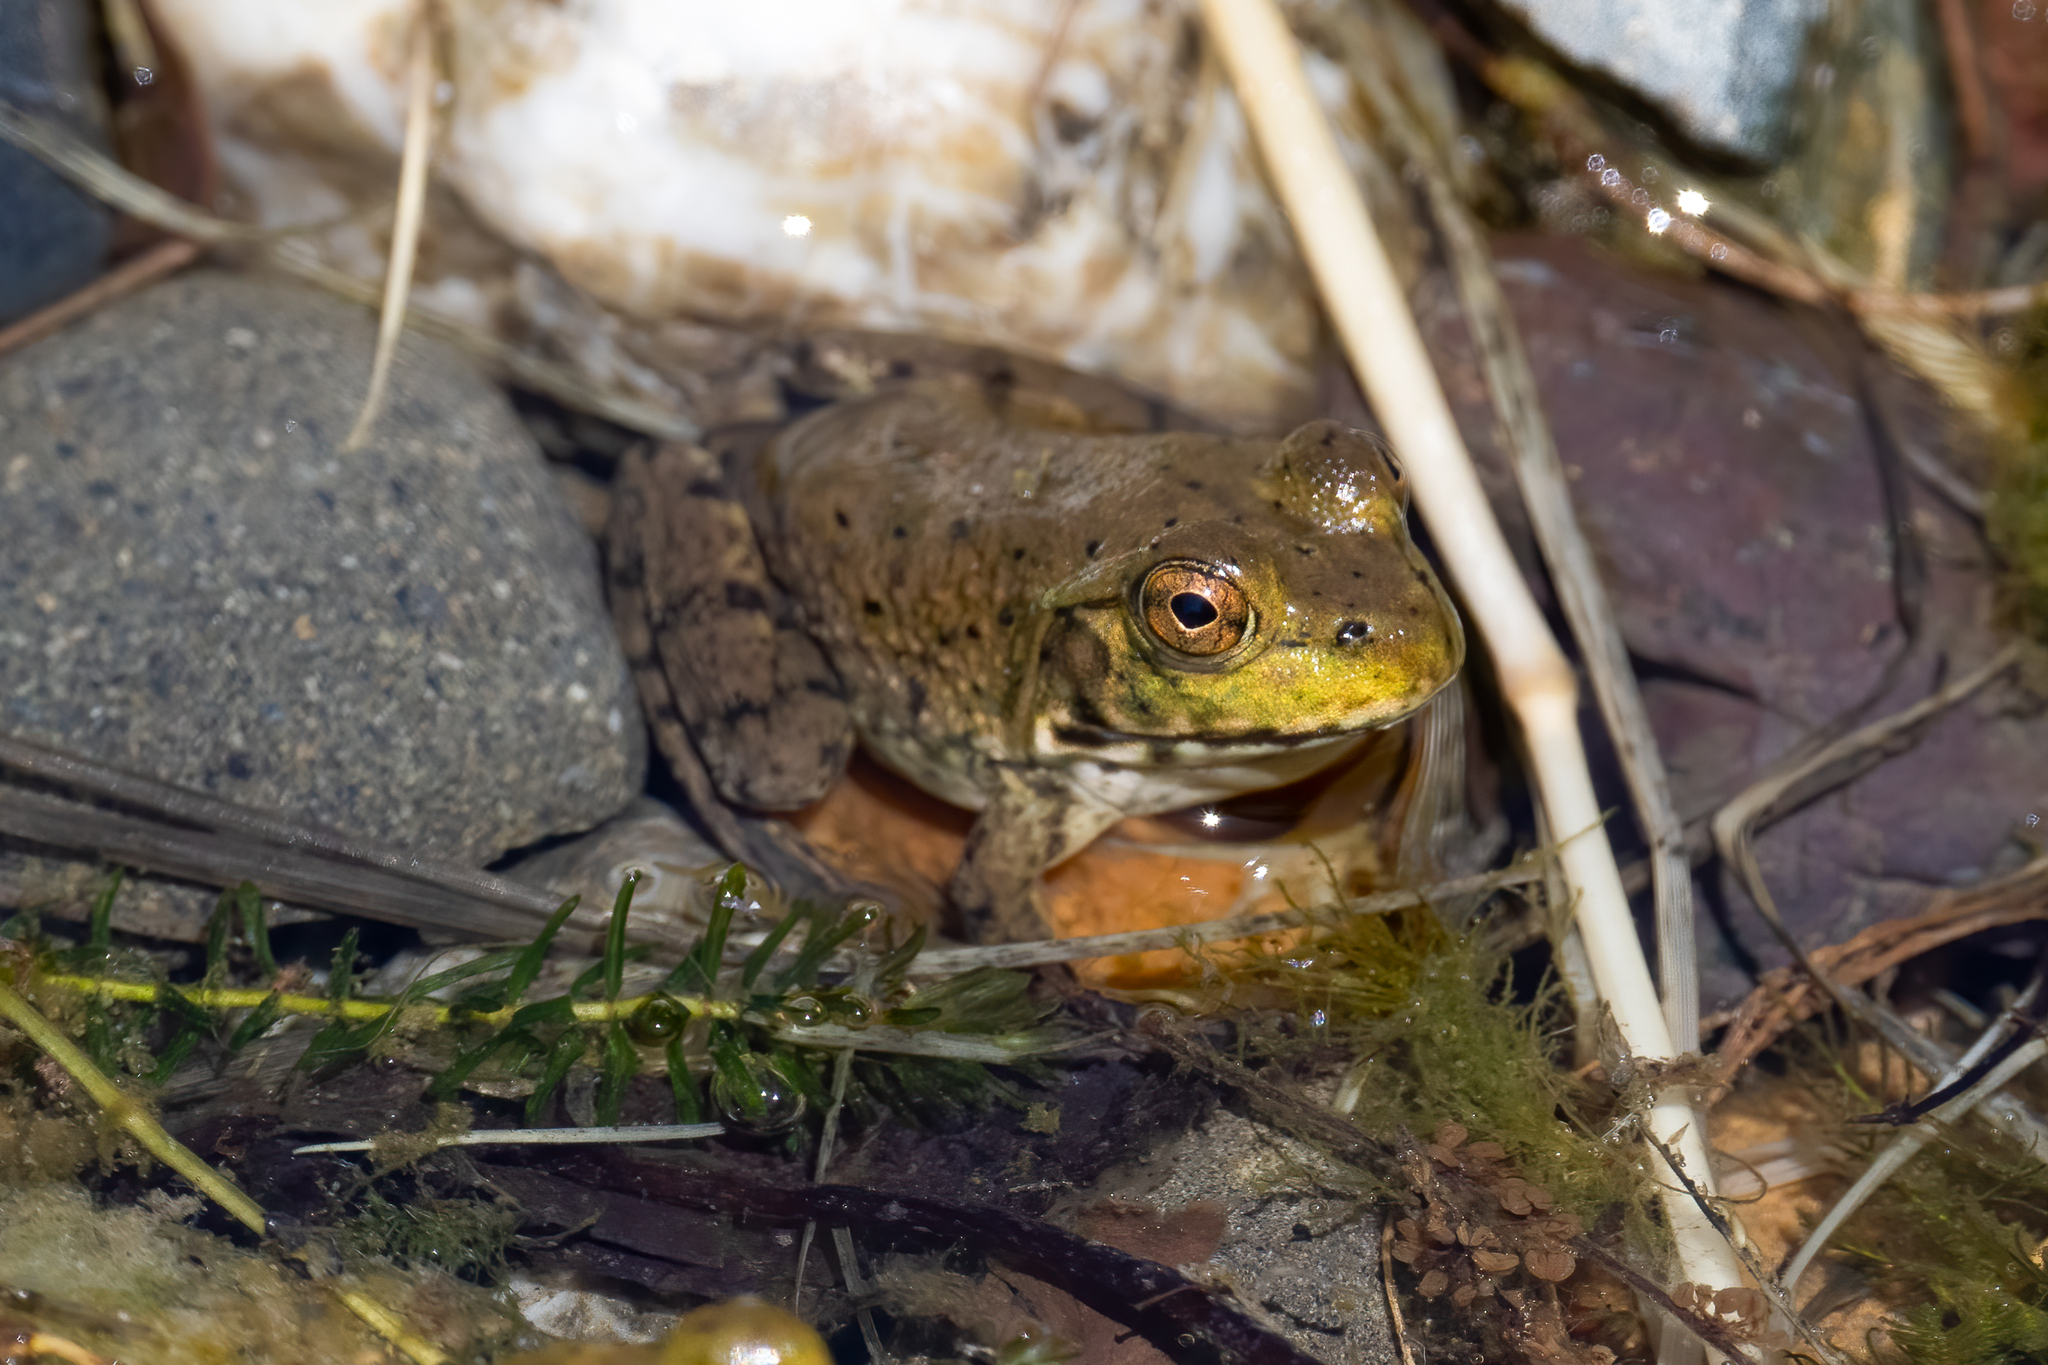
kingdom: Animalia
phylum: Chordata
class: Amphibia
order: Anura
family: Ranidae
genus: Lithobates
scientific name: Lithobates catesbeianus
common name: American bullfrog
